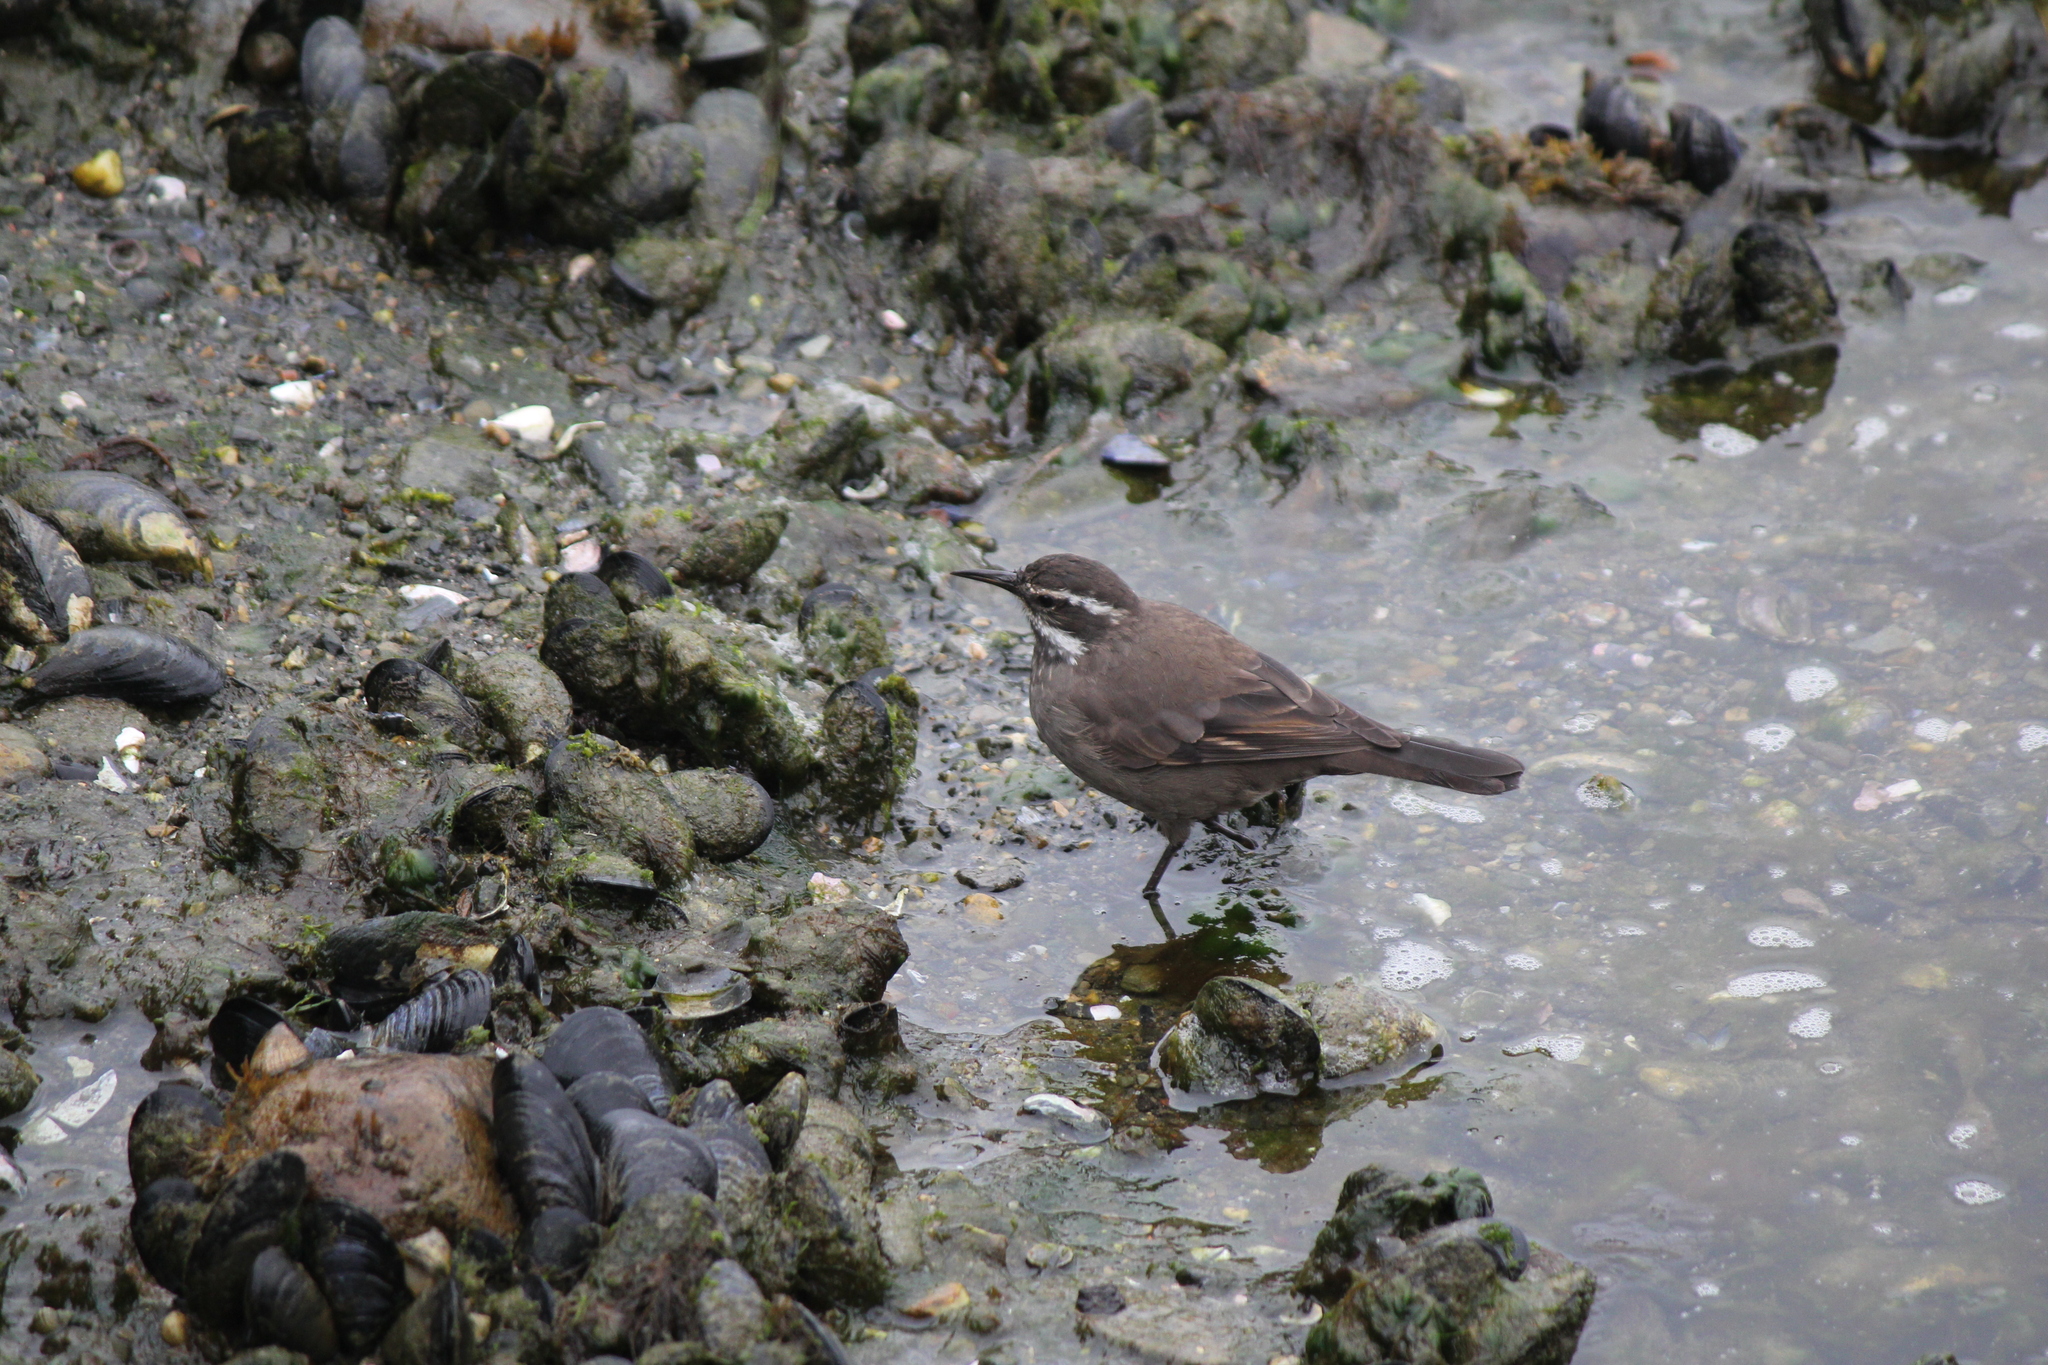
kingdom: Animalia
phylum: Chordata
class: Aves
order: Passeriformes
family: Furnariidae
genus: Cinclodes
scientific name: Cinclodes patagonicus
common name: Dark-bellied cinclodes
